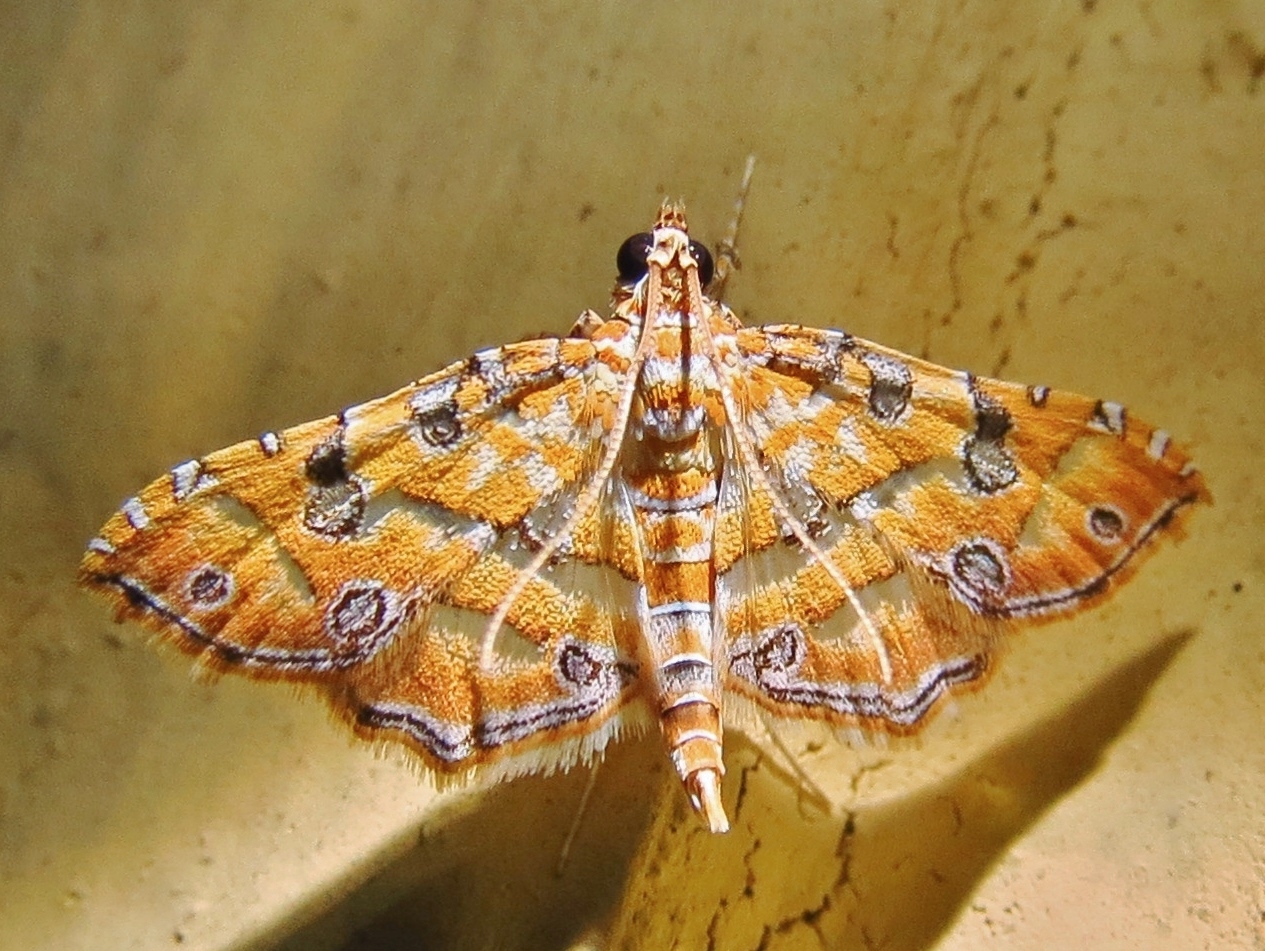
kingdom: Animalia
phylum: Arthropoda
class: Insecta
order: Lepidoptera
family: Crambidae
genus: Ommatospila
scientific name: Ommatospila narcaeusalis
